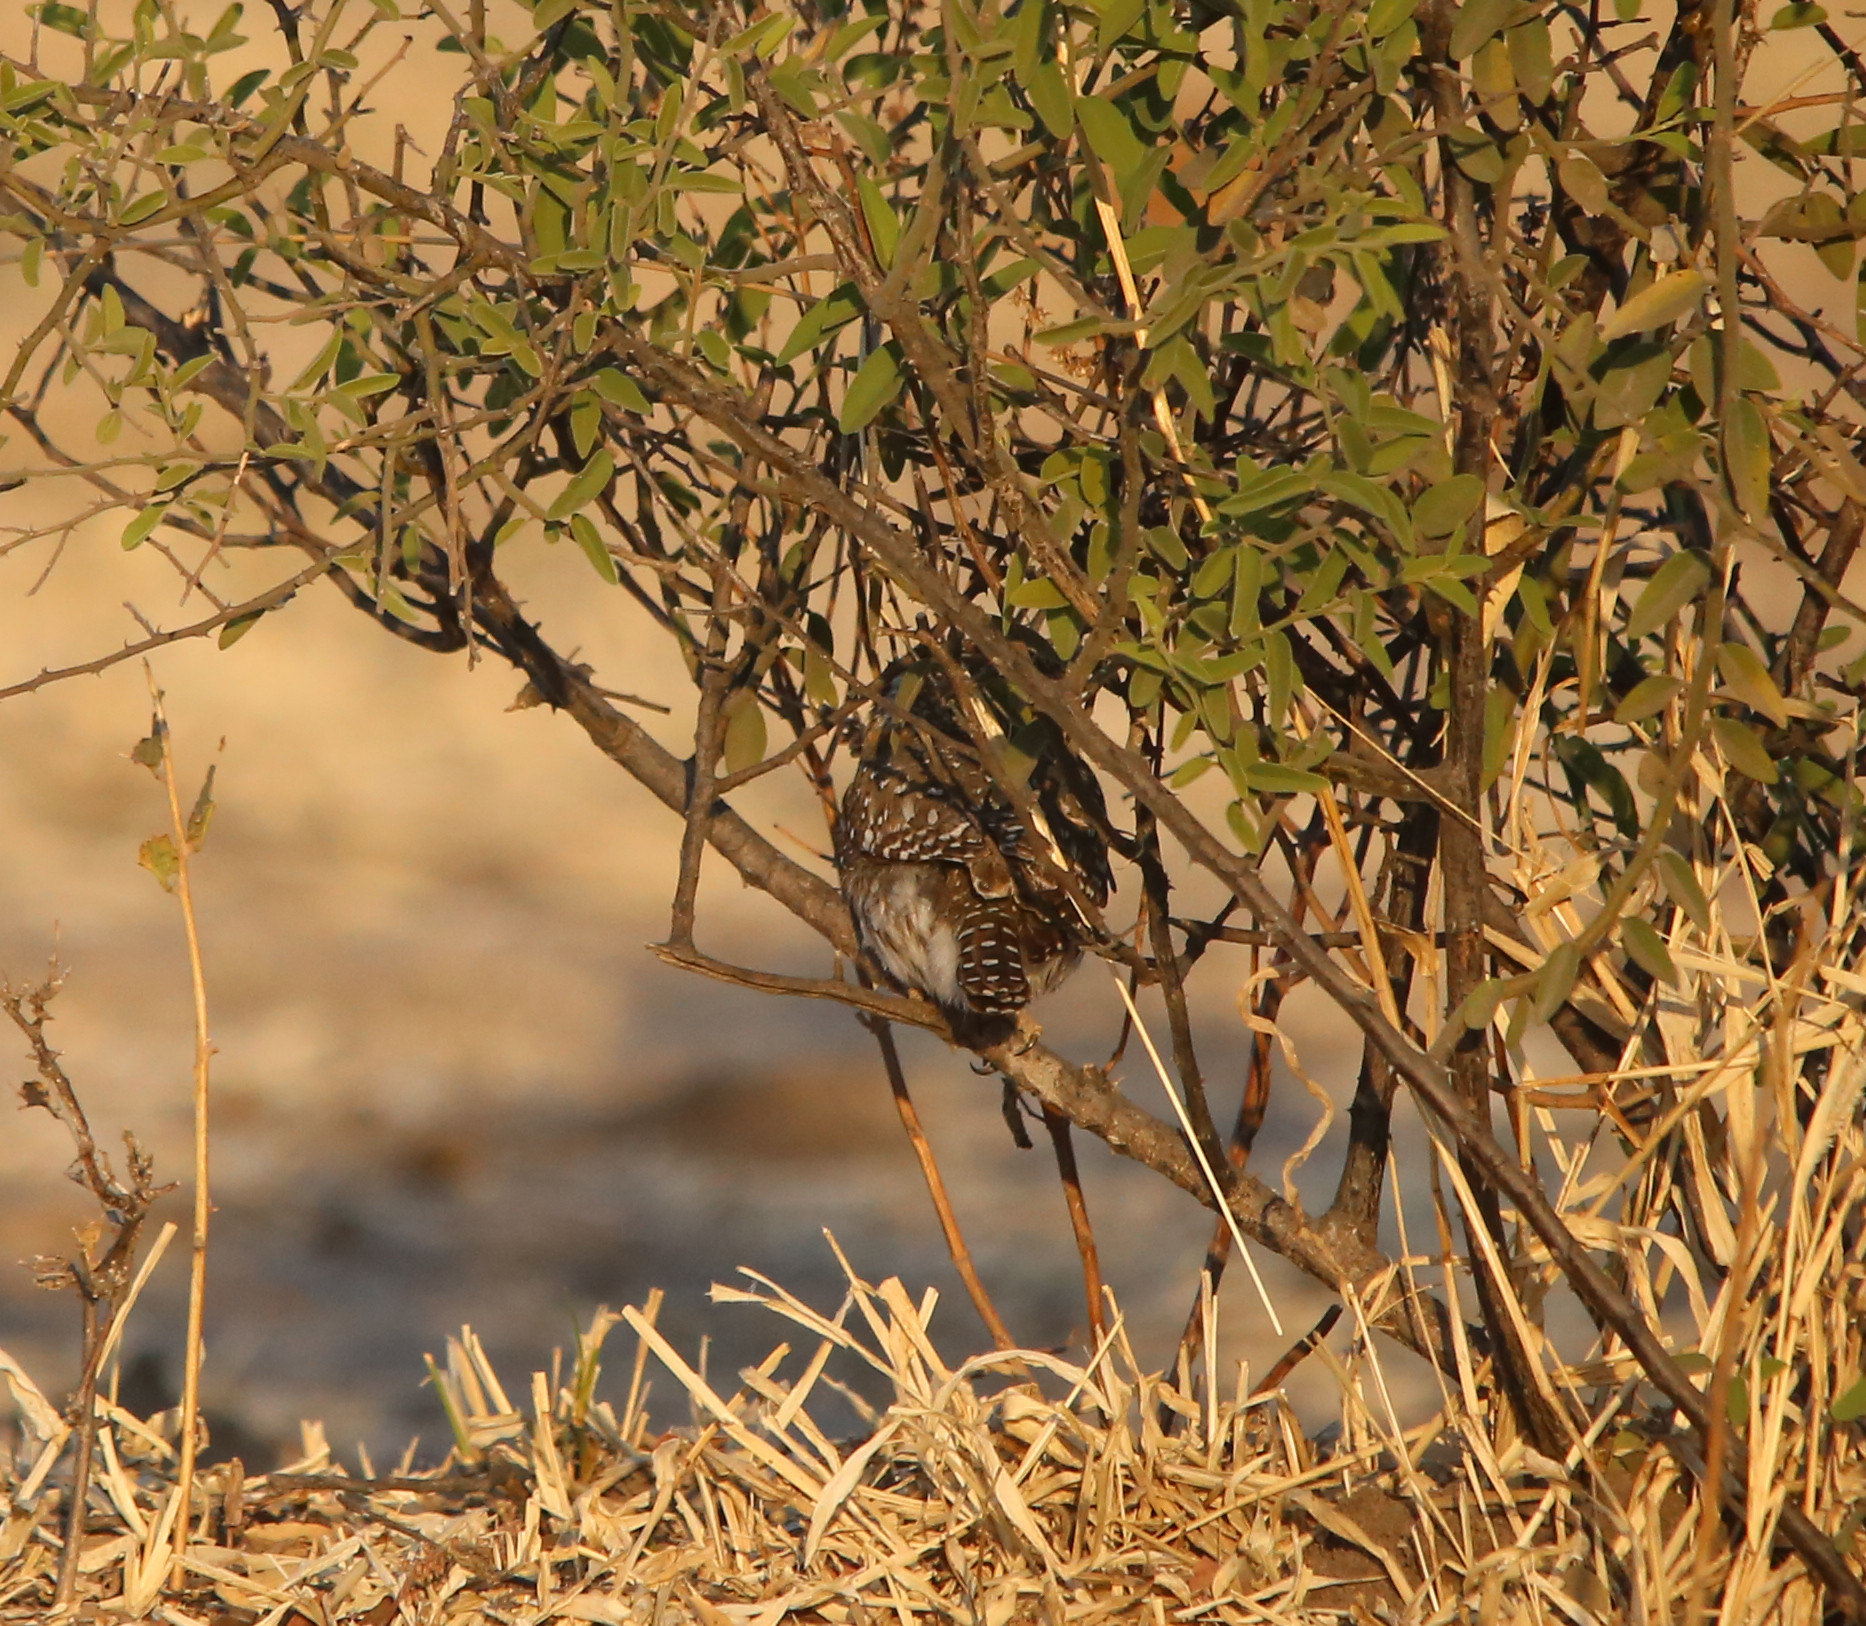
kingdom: Animalia
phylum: Chordata
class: Aves
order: Strigiformes
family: Strigidae
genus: Glaucidium
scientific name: Glaucidium perlatum
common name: Pearl-spotted owlet
